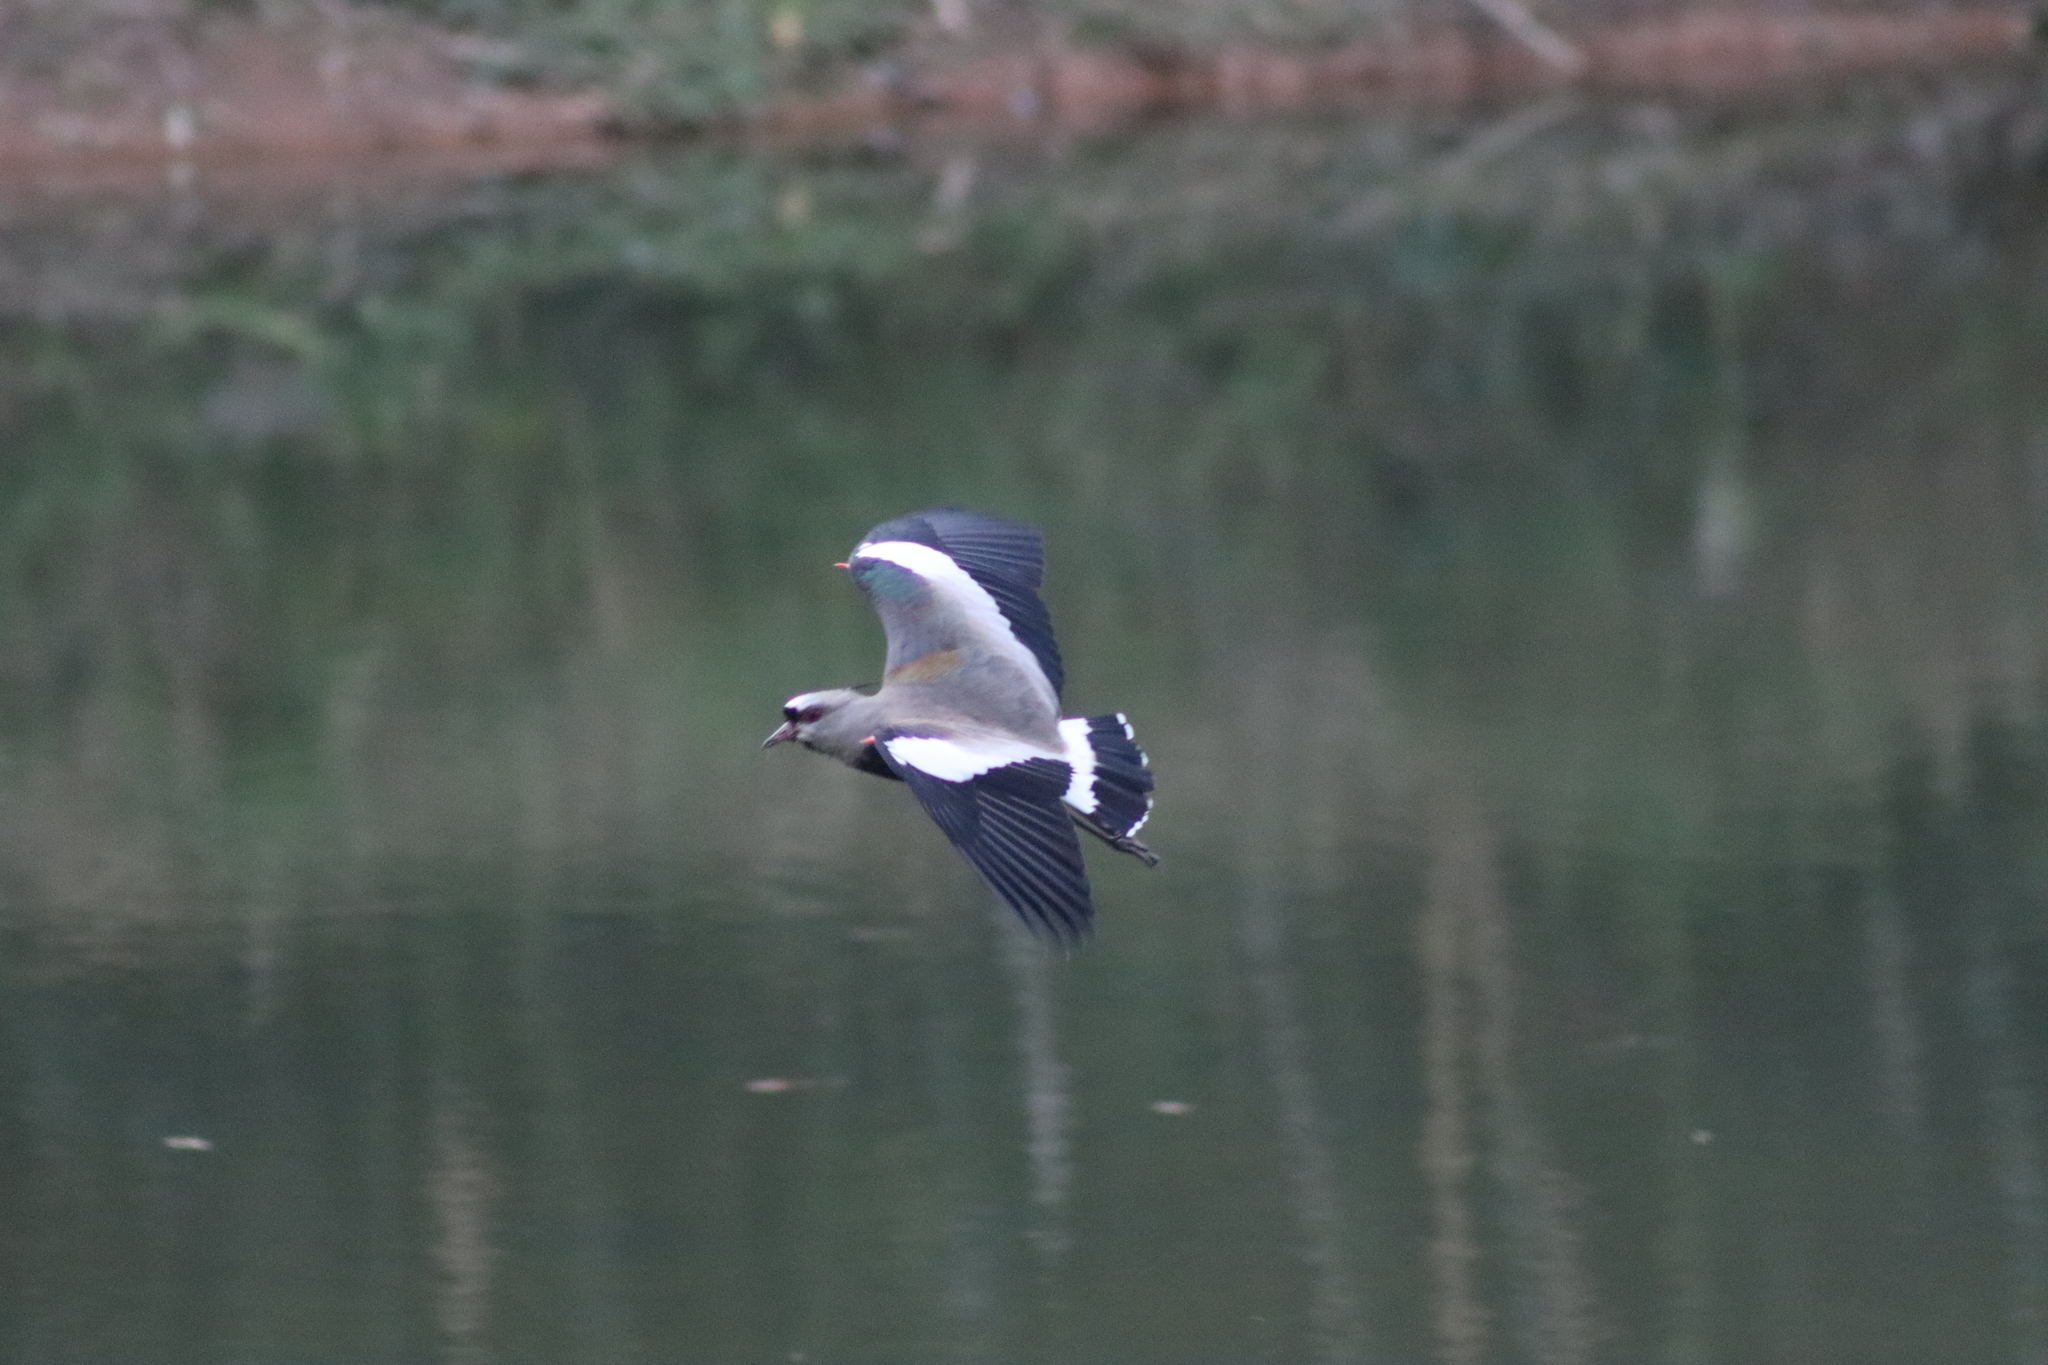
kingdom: Animalia
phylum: Chordata
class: Aves
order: Charadriiformes
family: Charadriidae
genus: Vanellus
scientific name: Vanellus chilensis
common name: Southern lapwing
